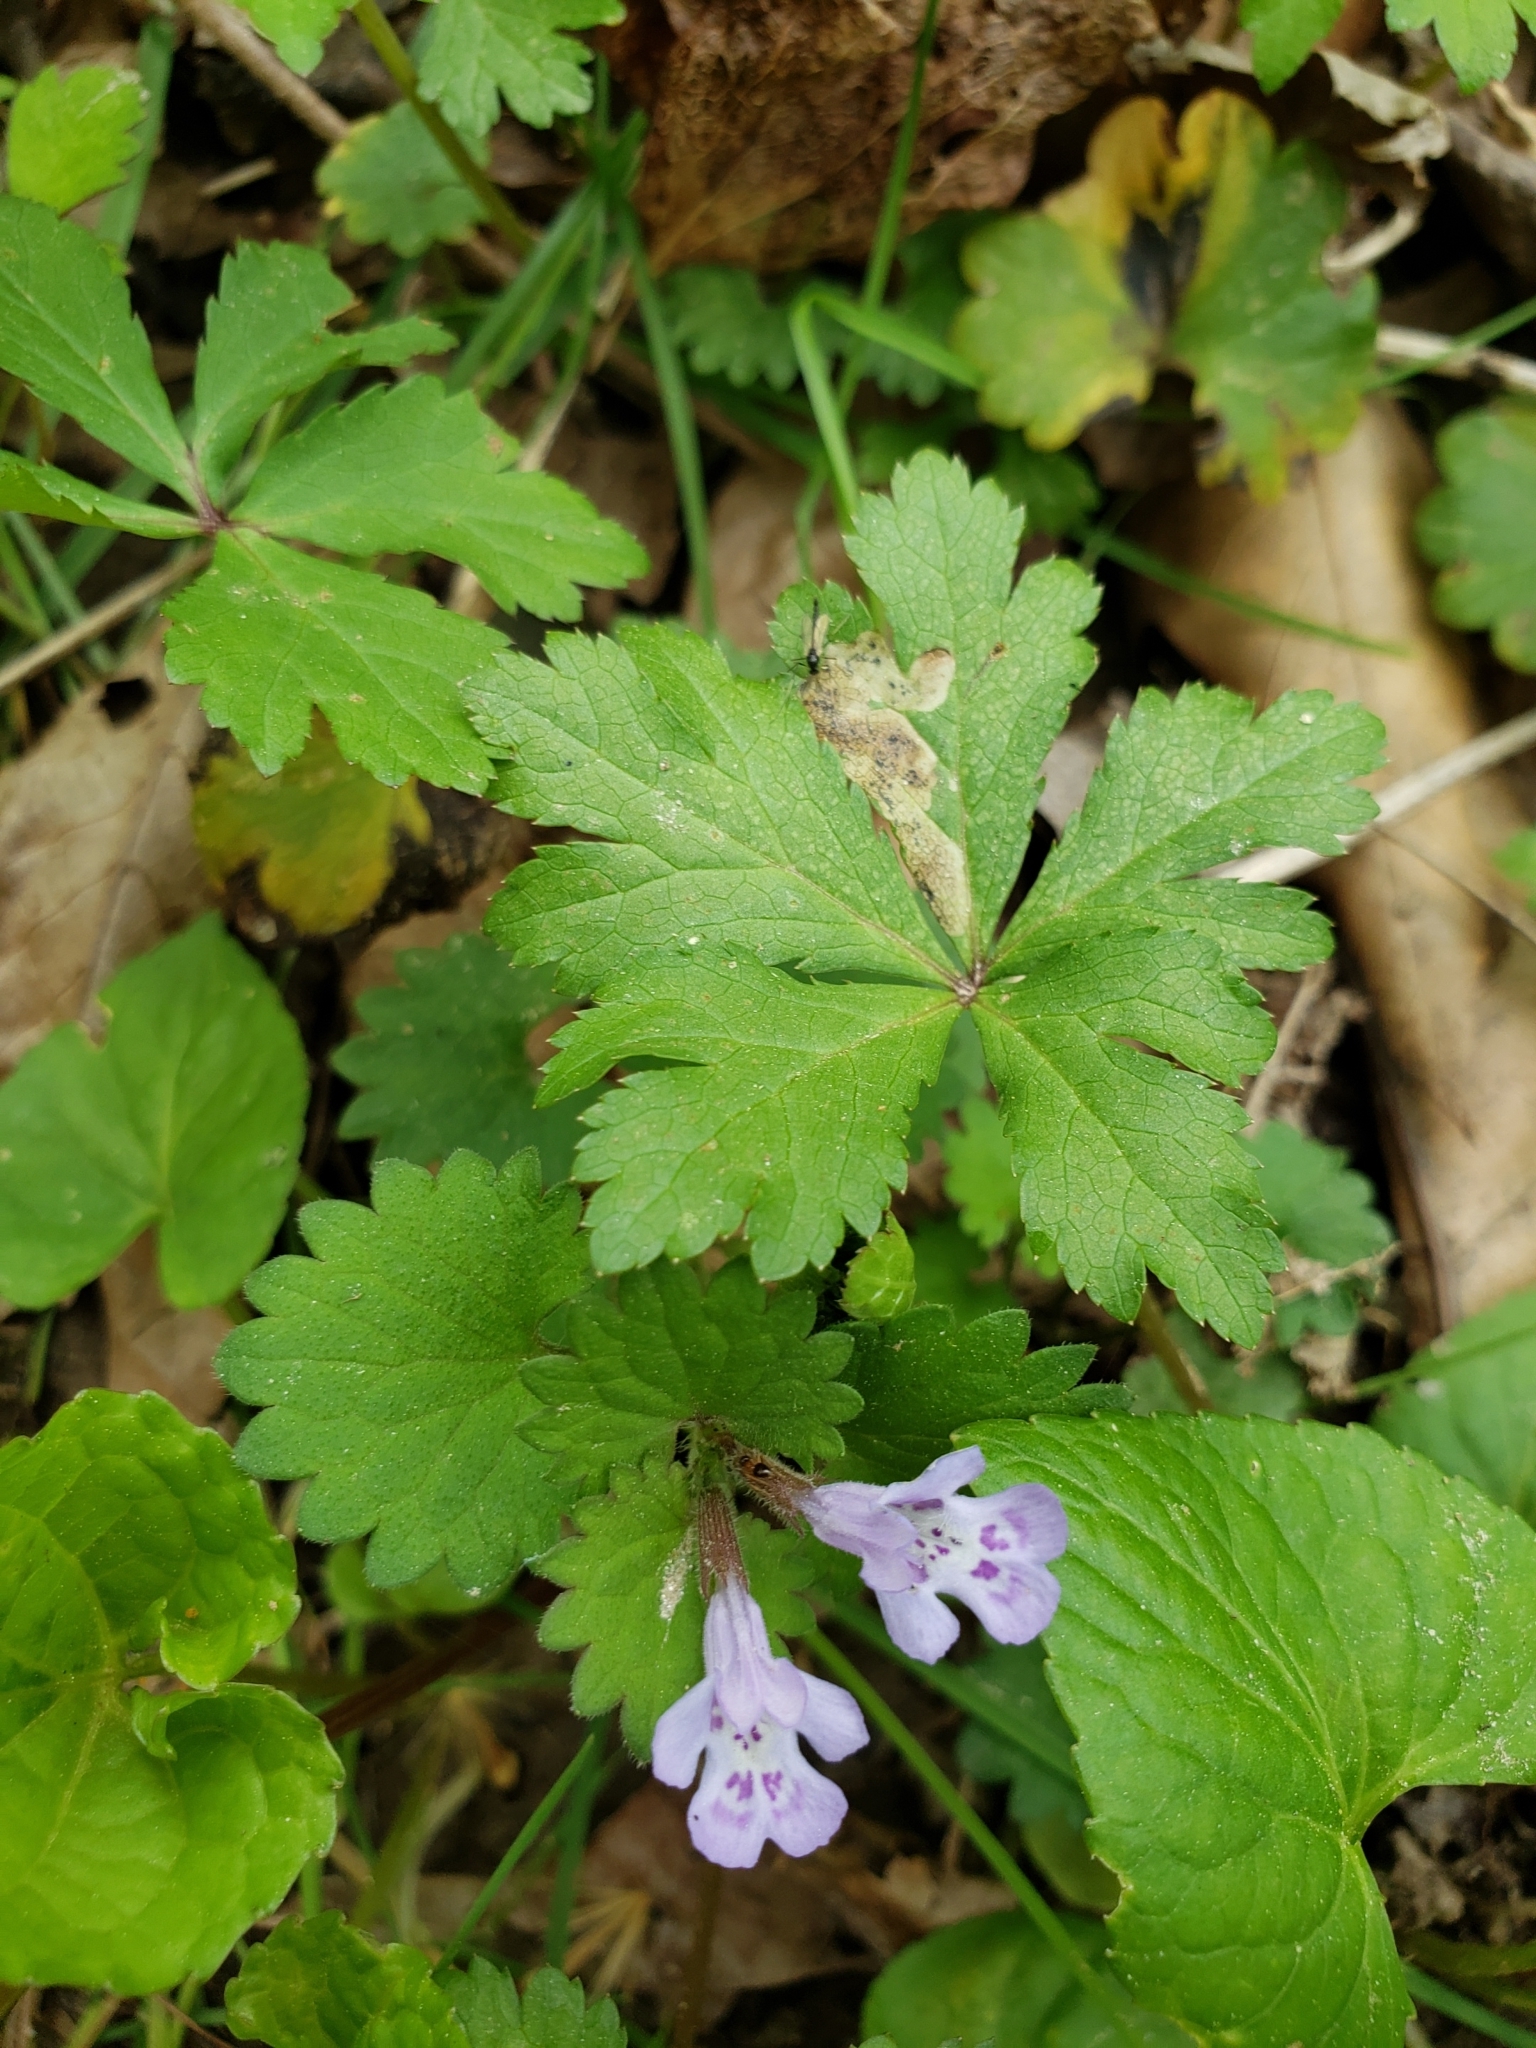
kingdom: Plantae
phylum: Tracheophyta
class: Magnoliopsida
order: Lamiales
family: Lamiaceae
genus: Glechoma
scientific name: Glechoma hederacea
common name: Ground ivy
